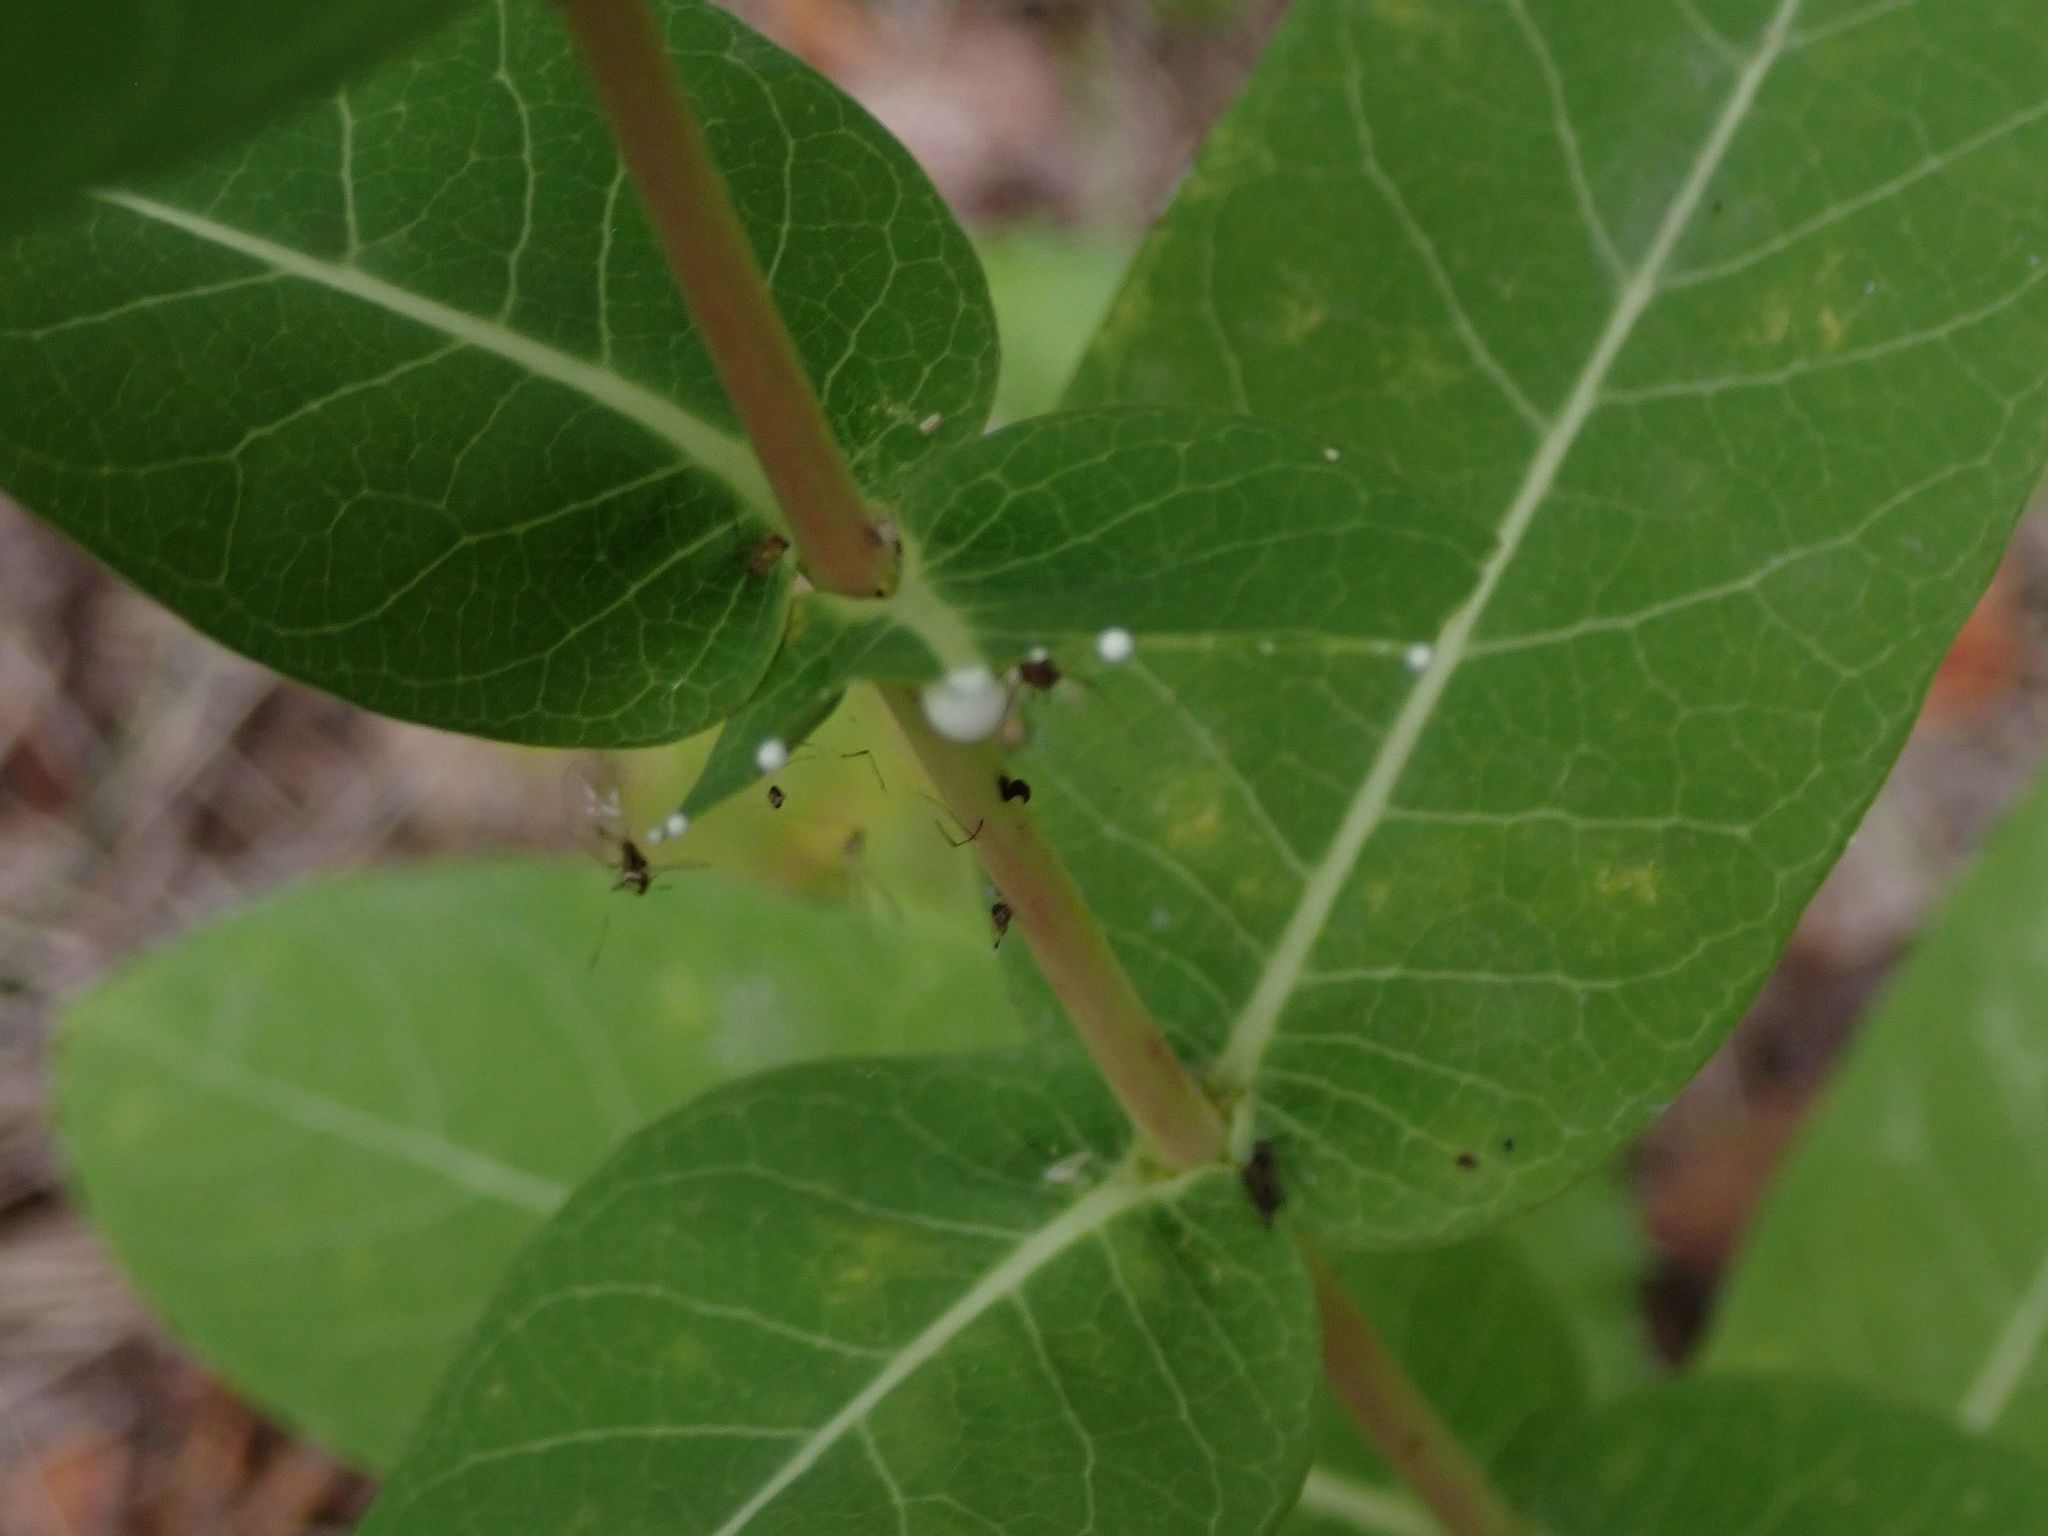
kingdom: Plantae
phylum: Tracheophyta
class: Magnoliopsida
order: Gentianales
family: Apocynaceae
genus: Apocynum
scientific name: Apocynum cannabinum
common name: Hemp dogbane
